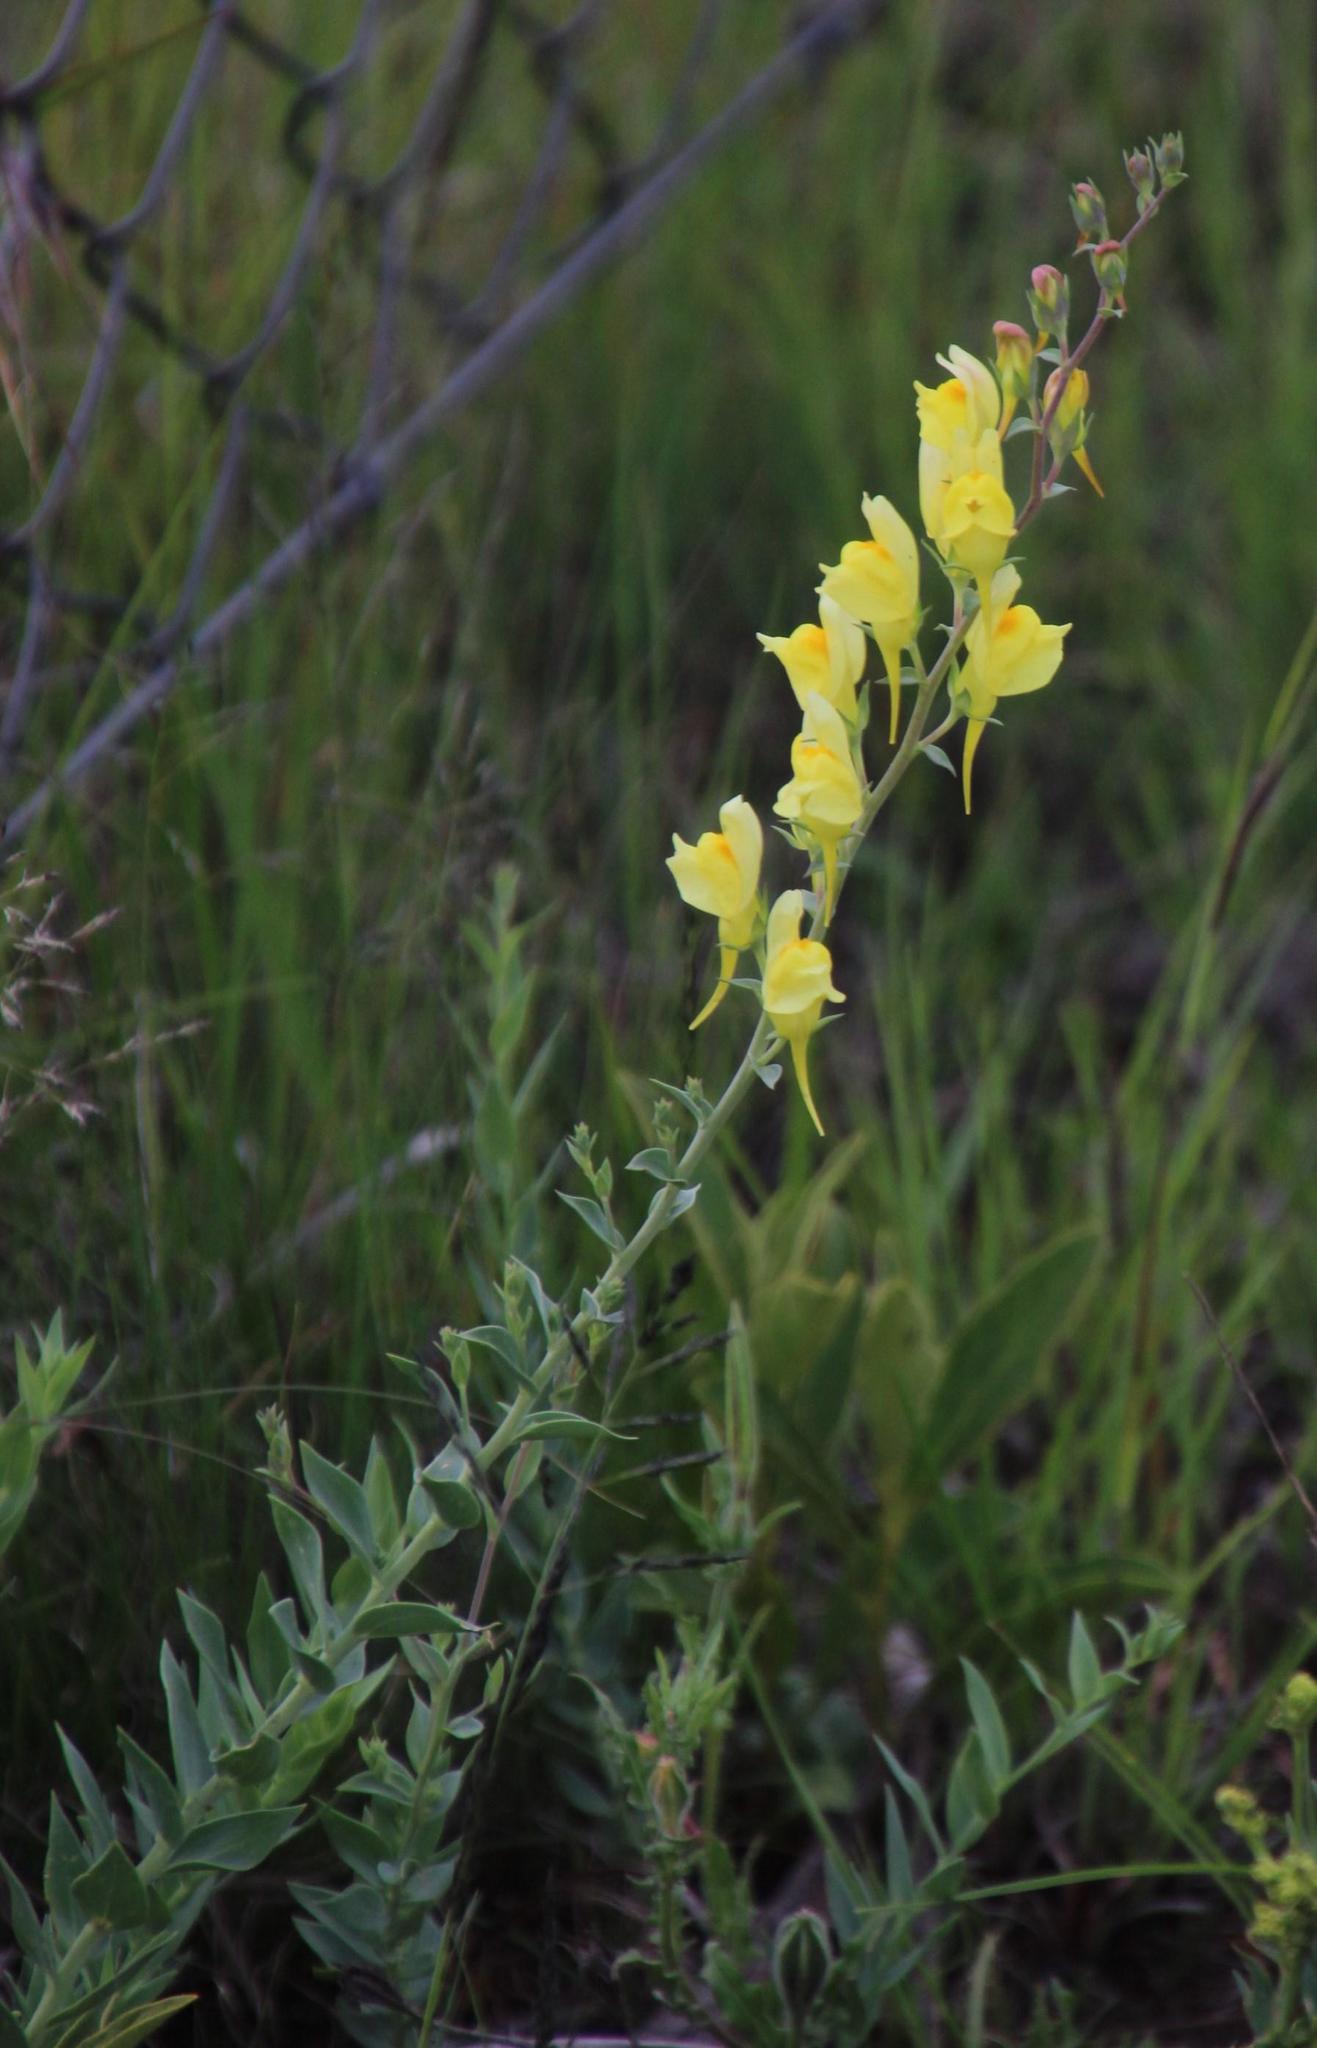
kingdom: Plantae
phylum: Tracheophyta
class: Magnoliopsida
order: Lamiales
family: Plantaginaceae
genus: Linaria
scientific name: Linaria vulgaris
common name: Butter and eggs
